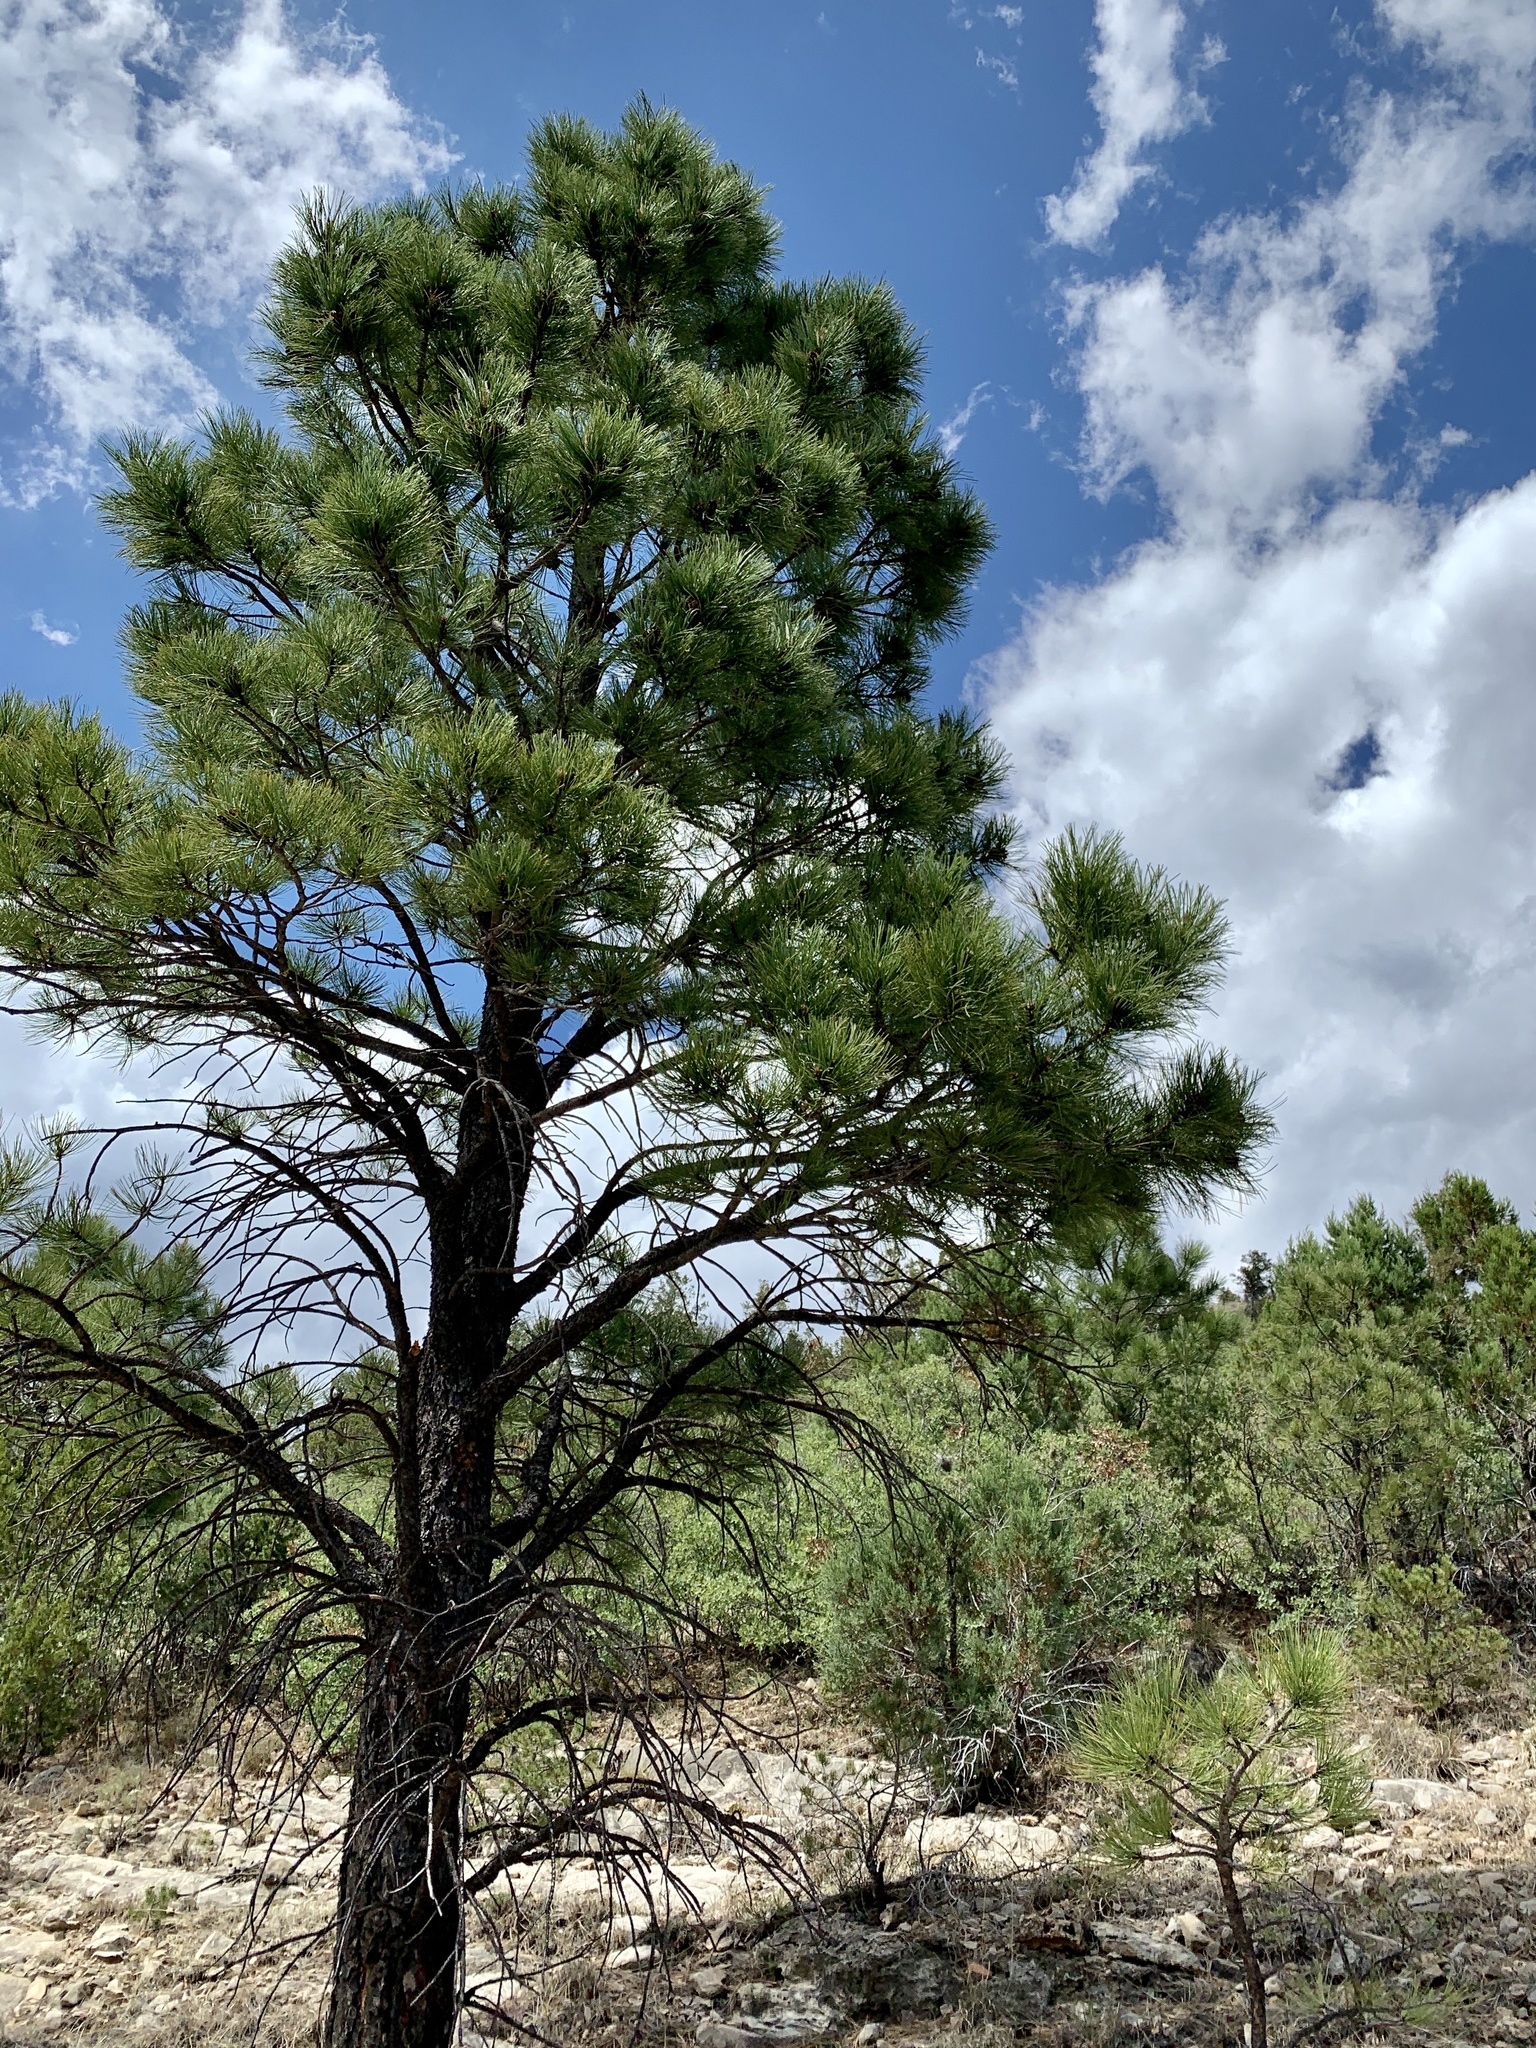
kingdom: Plantae
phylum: Tracheophyta
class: Pinopsida
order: Pinales
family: Pinaceae
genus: Pinus
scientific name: Pinus ponderosa
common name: Western yellow-pine
